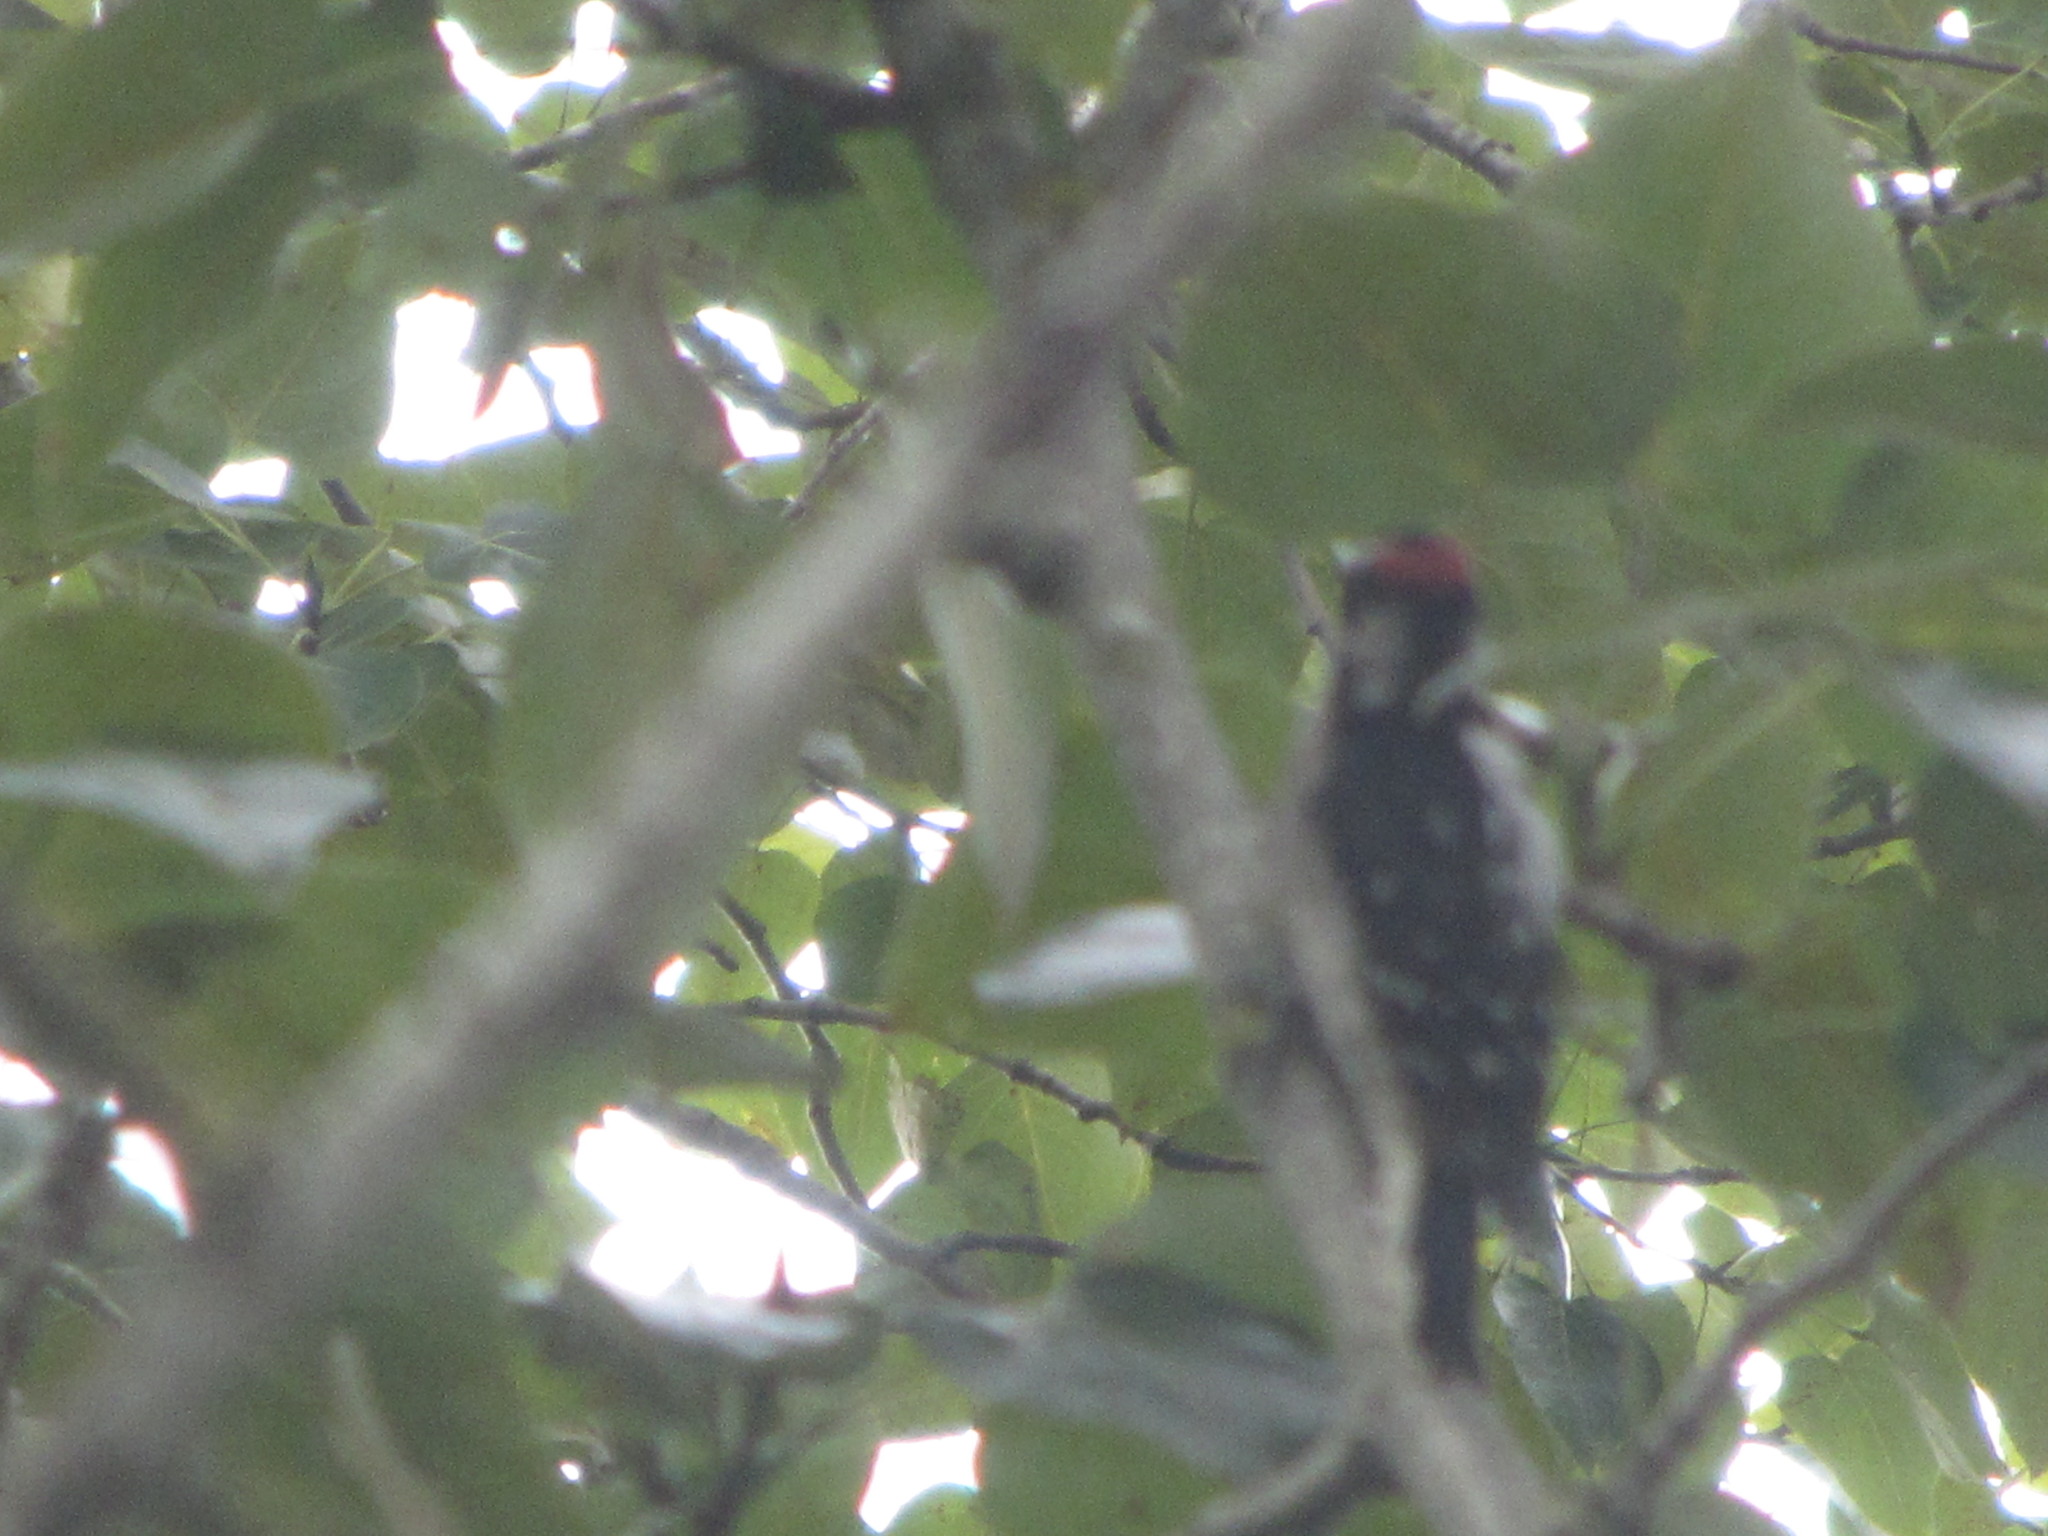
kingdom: Animalia
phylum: Chordata
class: Aves
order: Piciformes
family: Picidae
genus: Dryobates
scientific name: Dryobates pubescens
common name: Downy woodpecker
